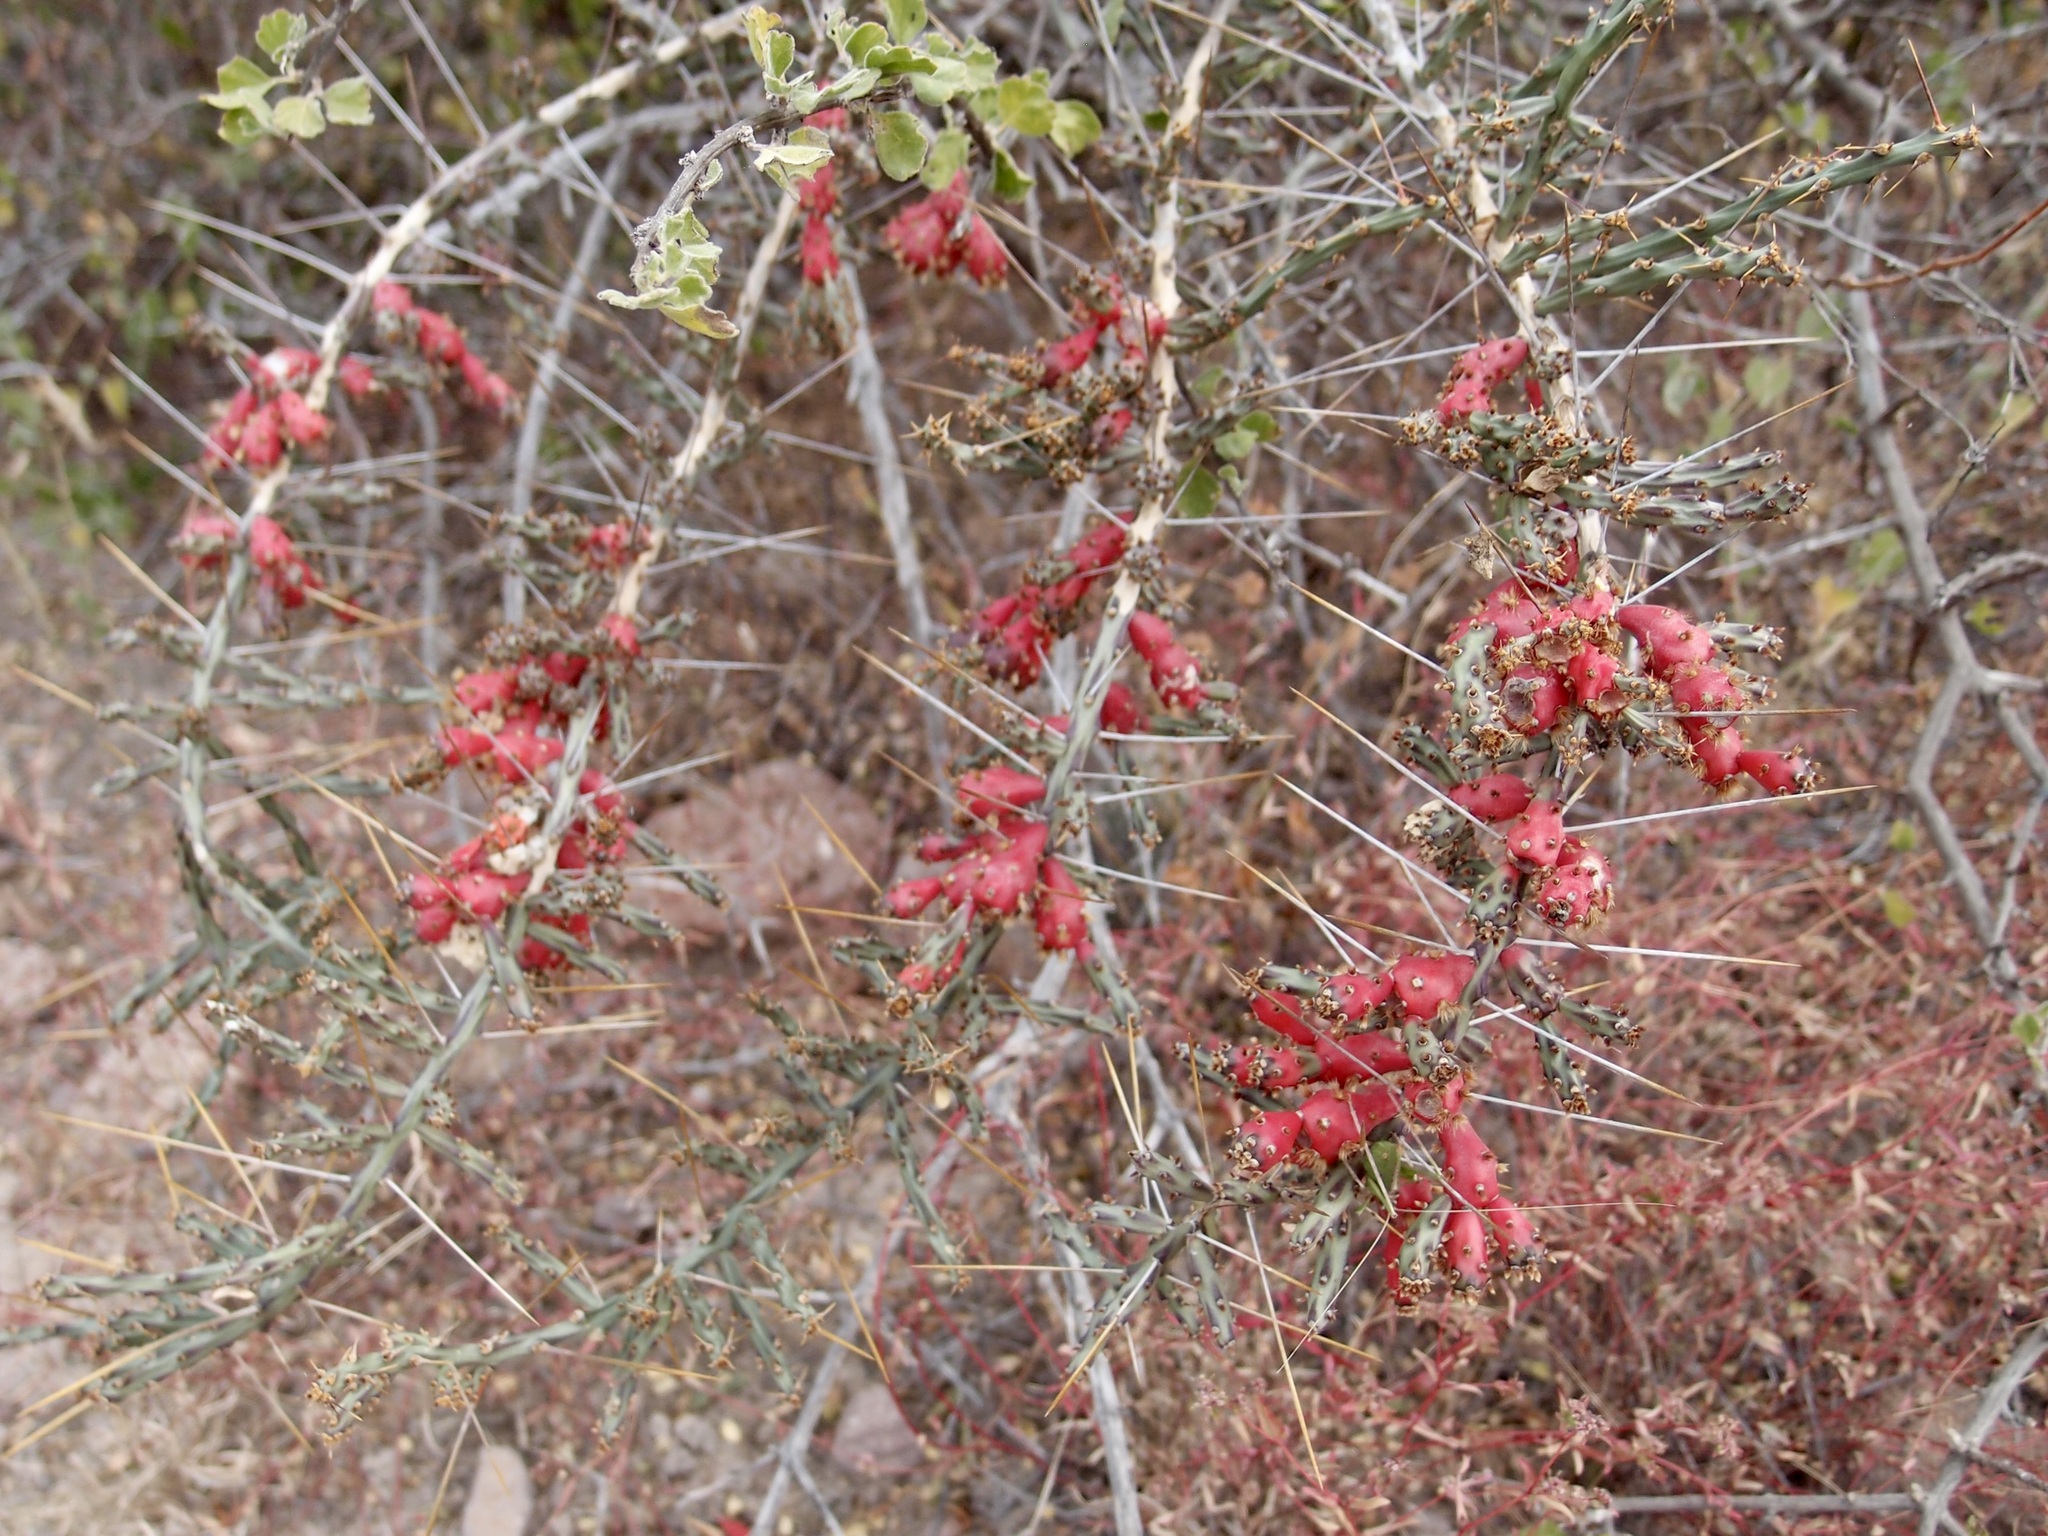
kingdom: Plantae
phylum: Tracheophyta
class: Magnoliopsida
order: Caryophyllales
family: Cactaceae
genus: Cylindropuntia
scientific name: Cylindropuntia leptocaulis
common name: Christmas cactus
